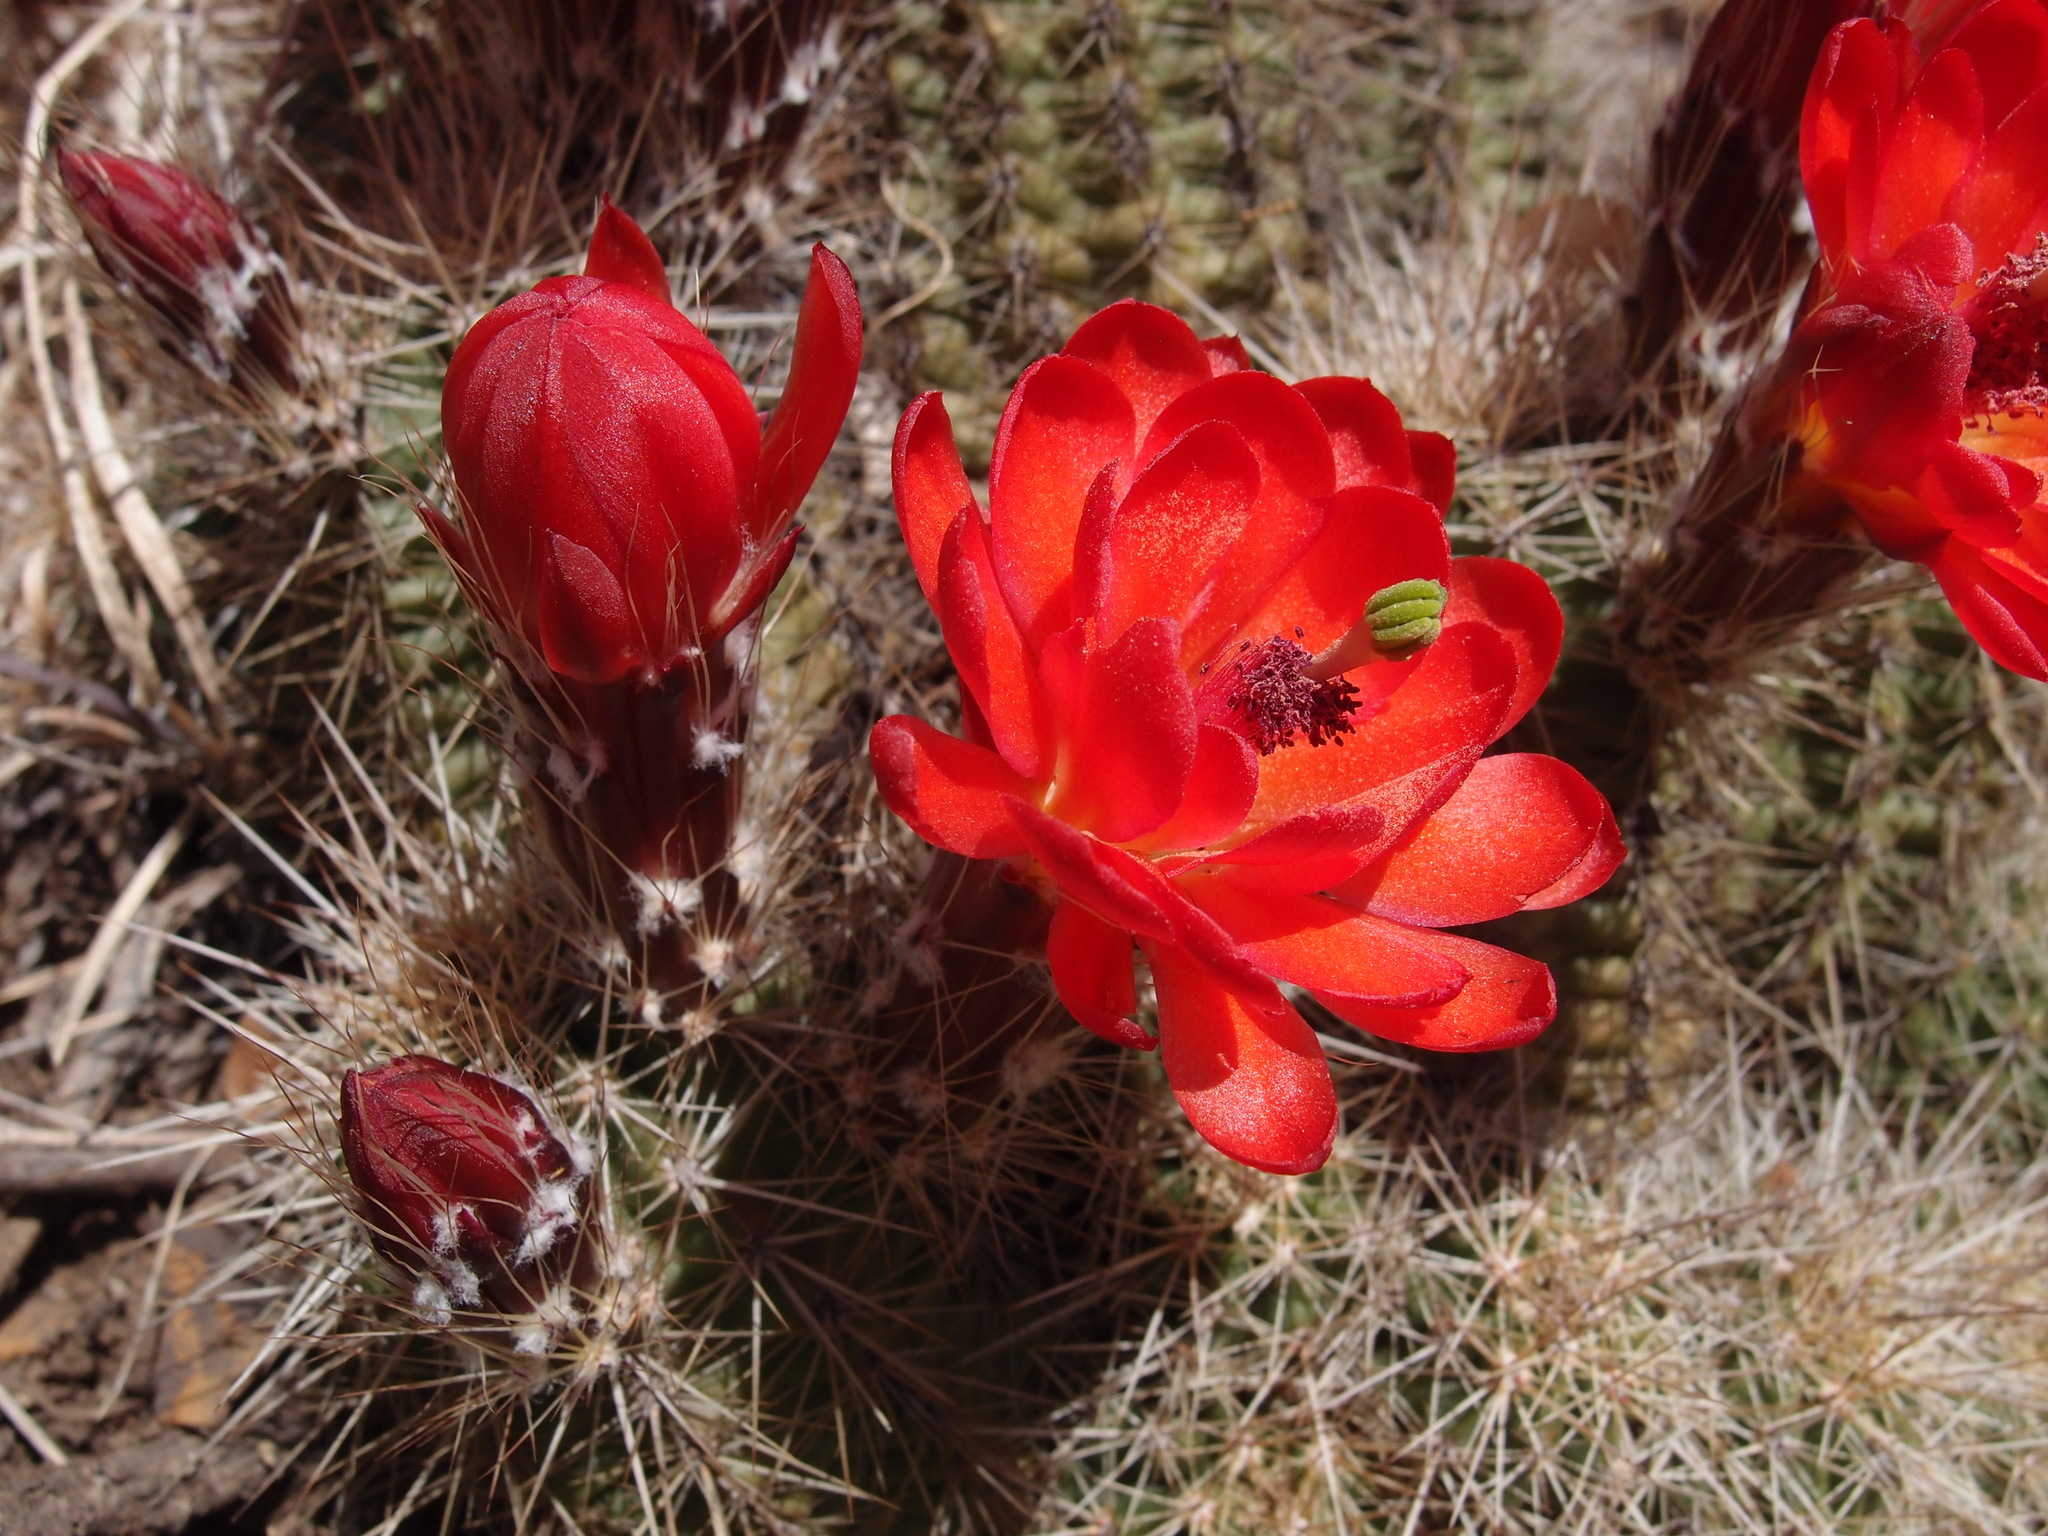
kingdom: Plantae
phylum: Tracheophyta
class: Magnoliopsida
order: Caryophyllales
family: Cactaceae
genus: Echinocereus
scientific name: Echinocereus coccineus
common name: Scarlet hedgehog cactus
